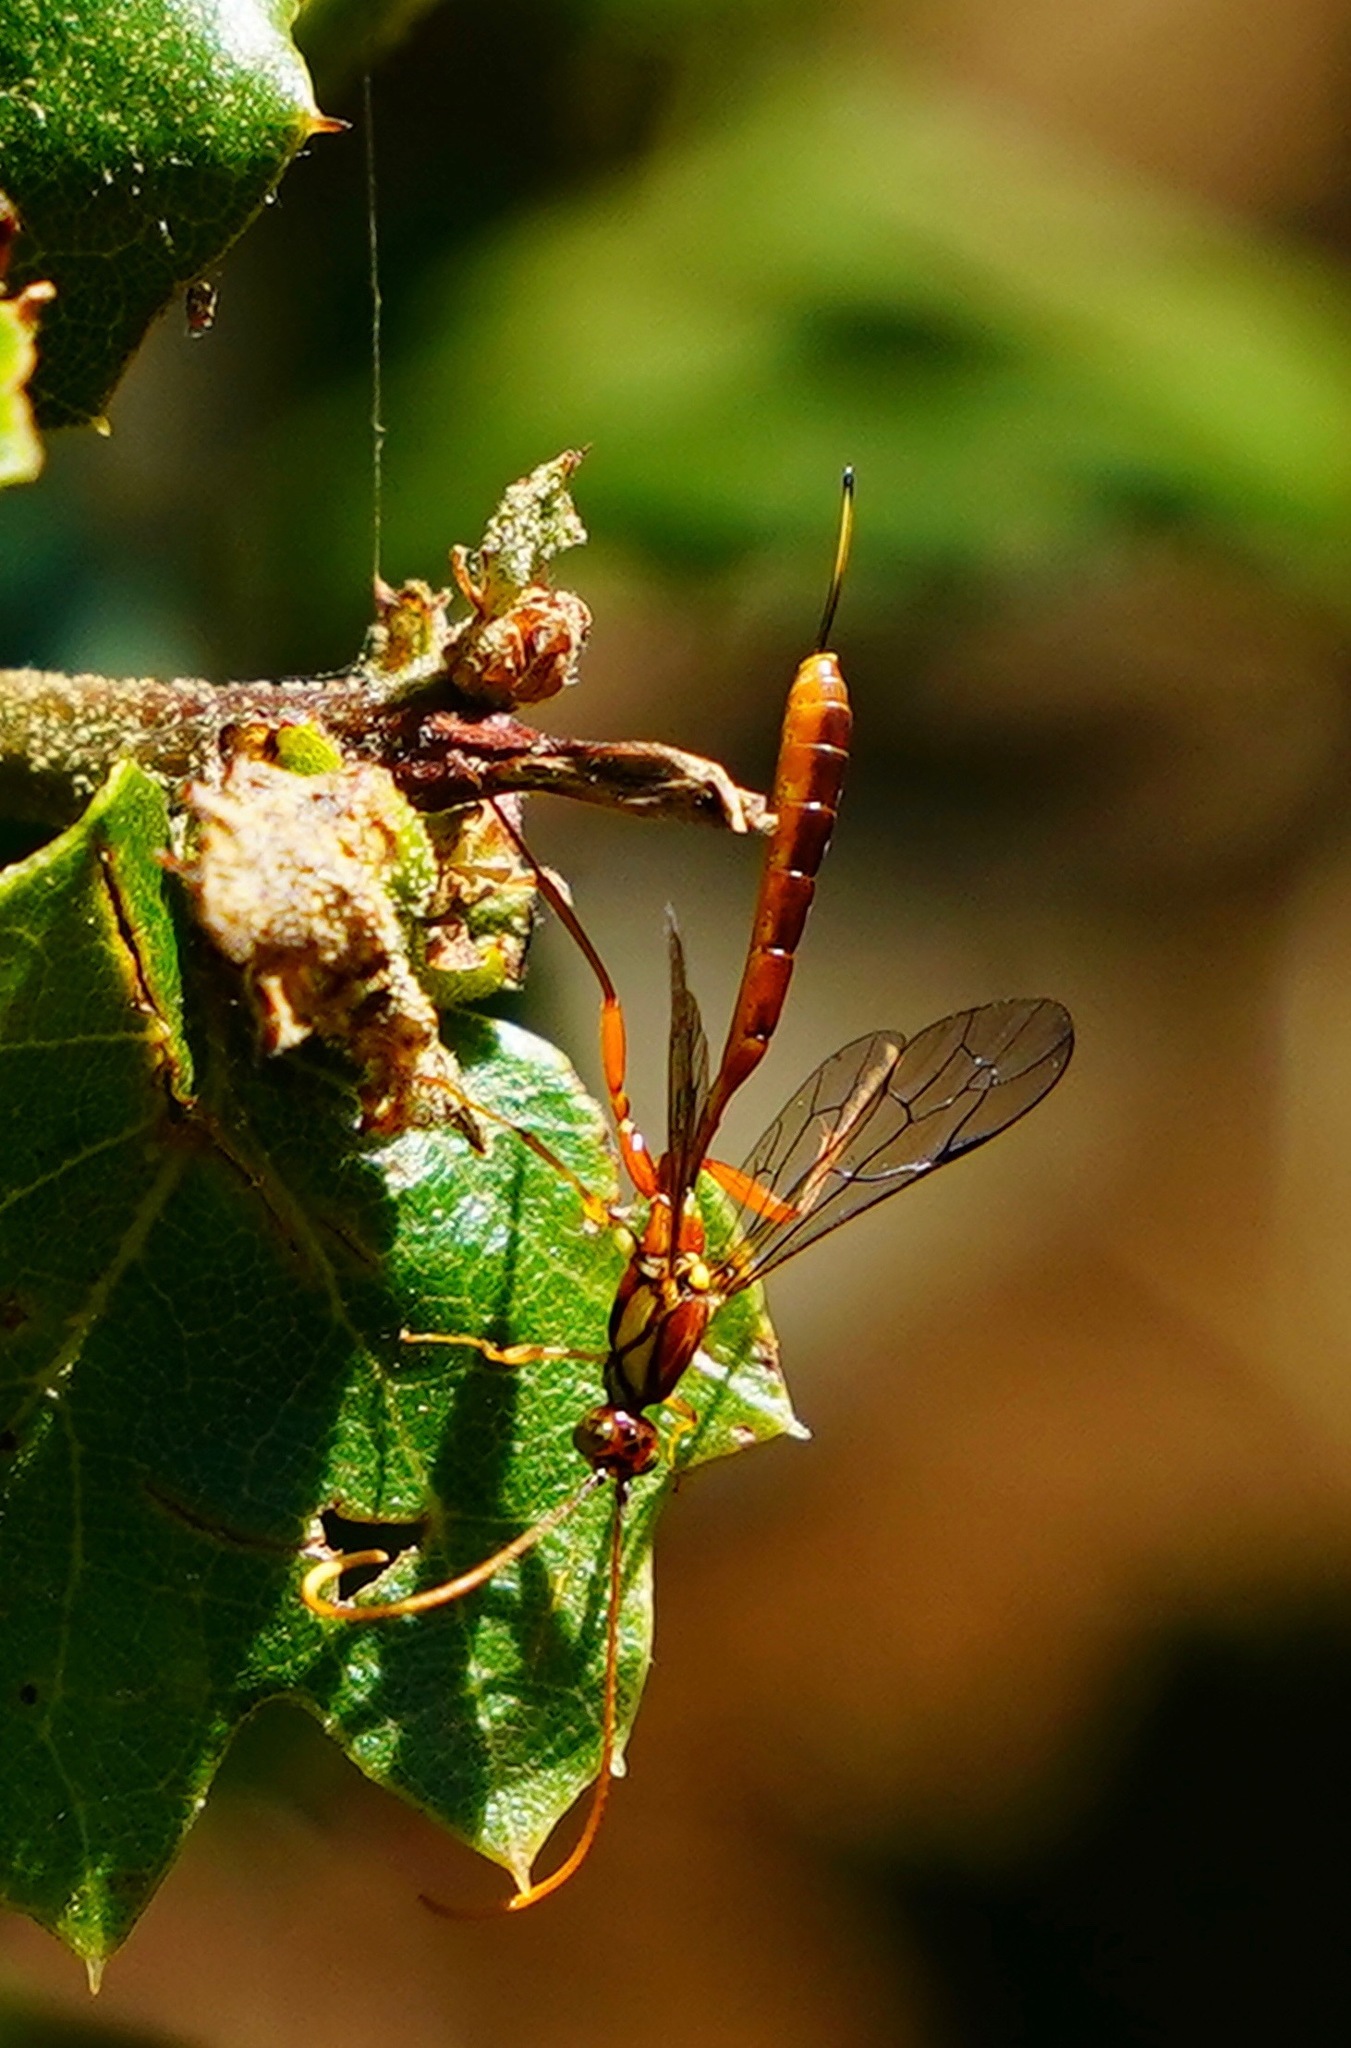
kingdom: Animalia
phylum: Arthropoda
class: Insecta
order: Hymenoptera
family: Ichneumonidae
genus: Grotea
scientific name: Grotea californica
